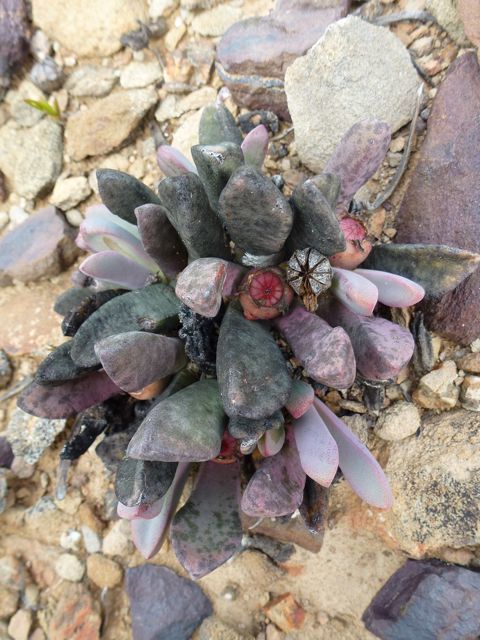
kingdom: Plantae
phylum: Tracheophyta
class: Magnoliopsida
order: Caryophyllales
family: Aizoaceae
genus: Cerochlamys
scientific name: Cerochlamys pachyphylla
